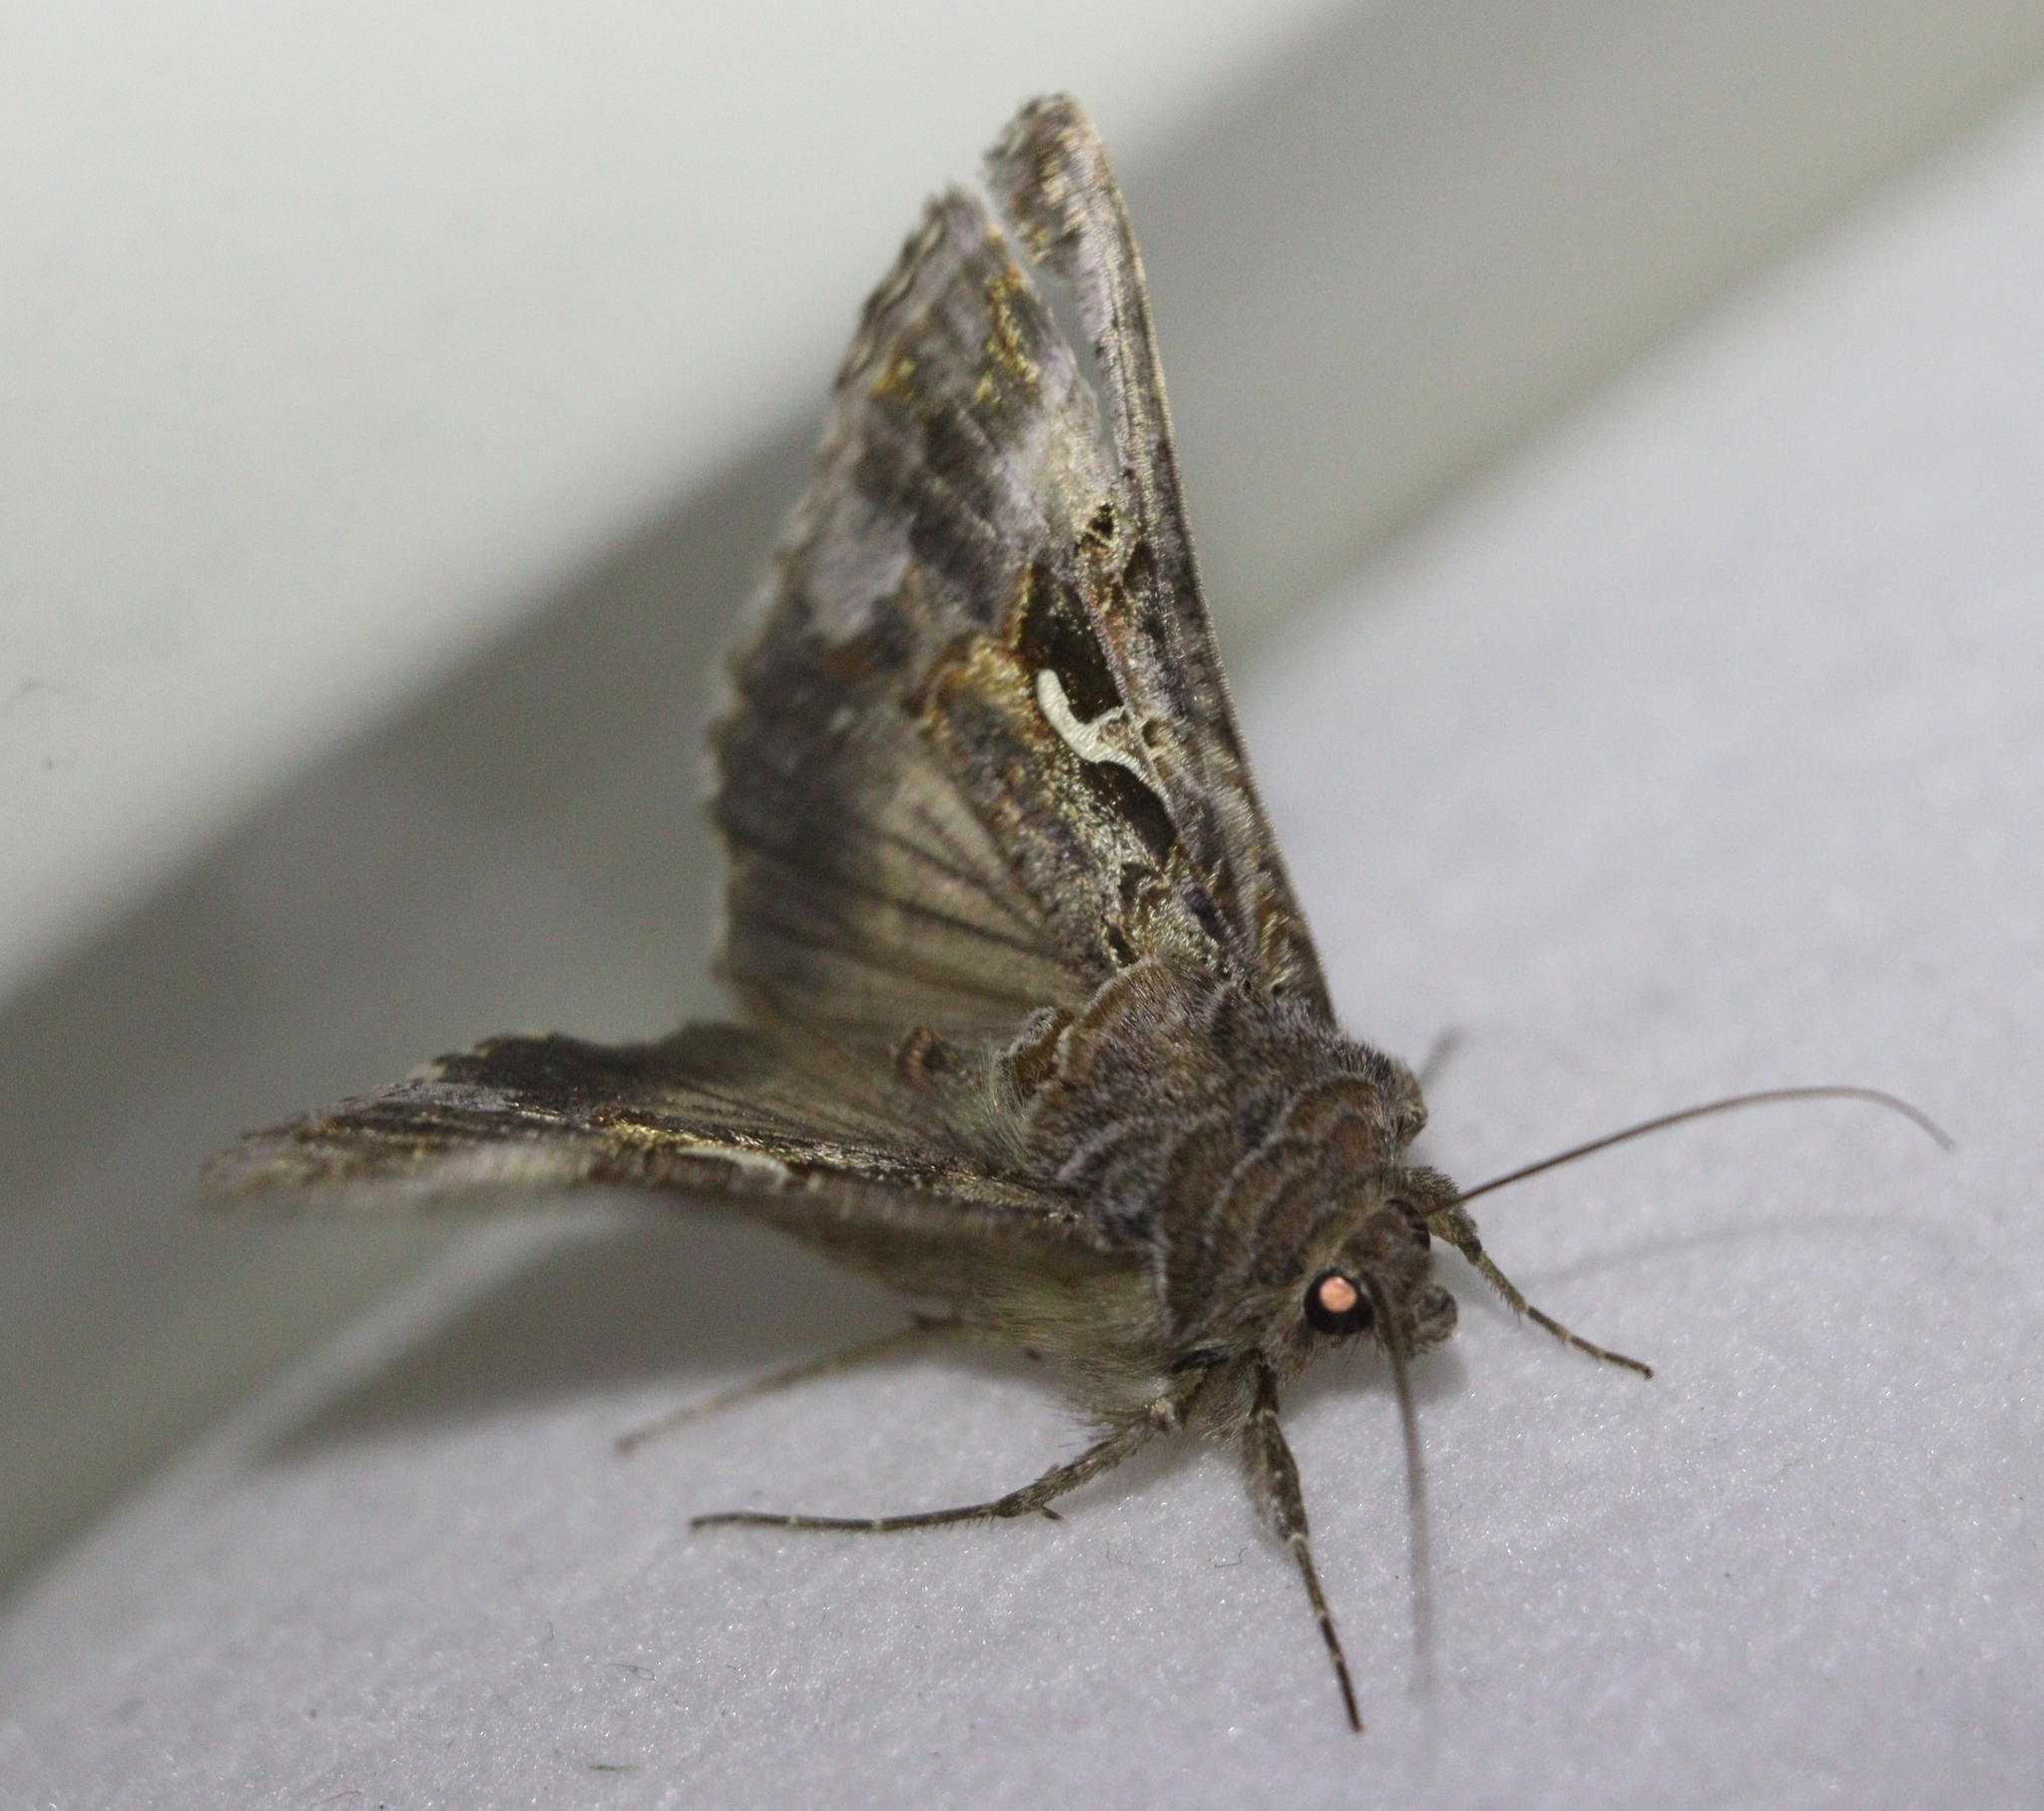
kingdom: Animalia
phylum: Arthropoda
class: Insecta
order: Lepidoptera
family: Noctuidae
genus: Autographa
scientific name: Autographa gamma
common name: Silver y
